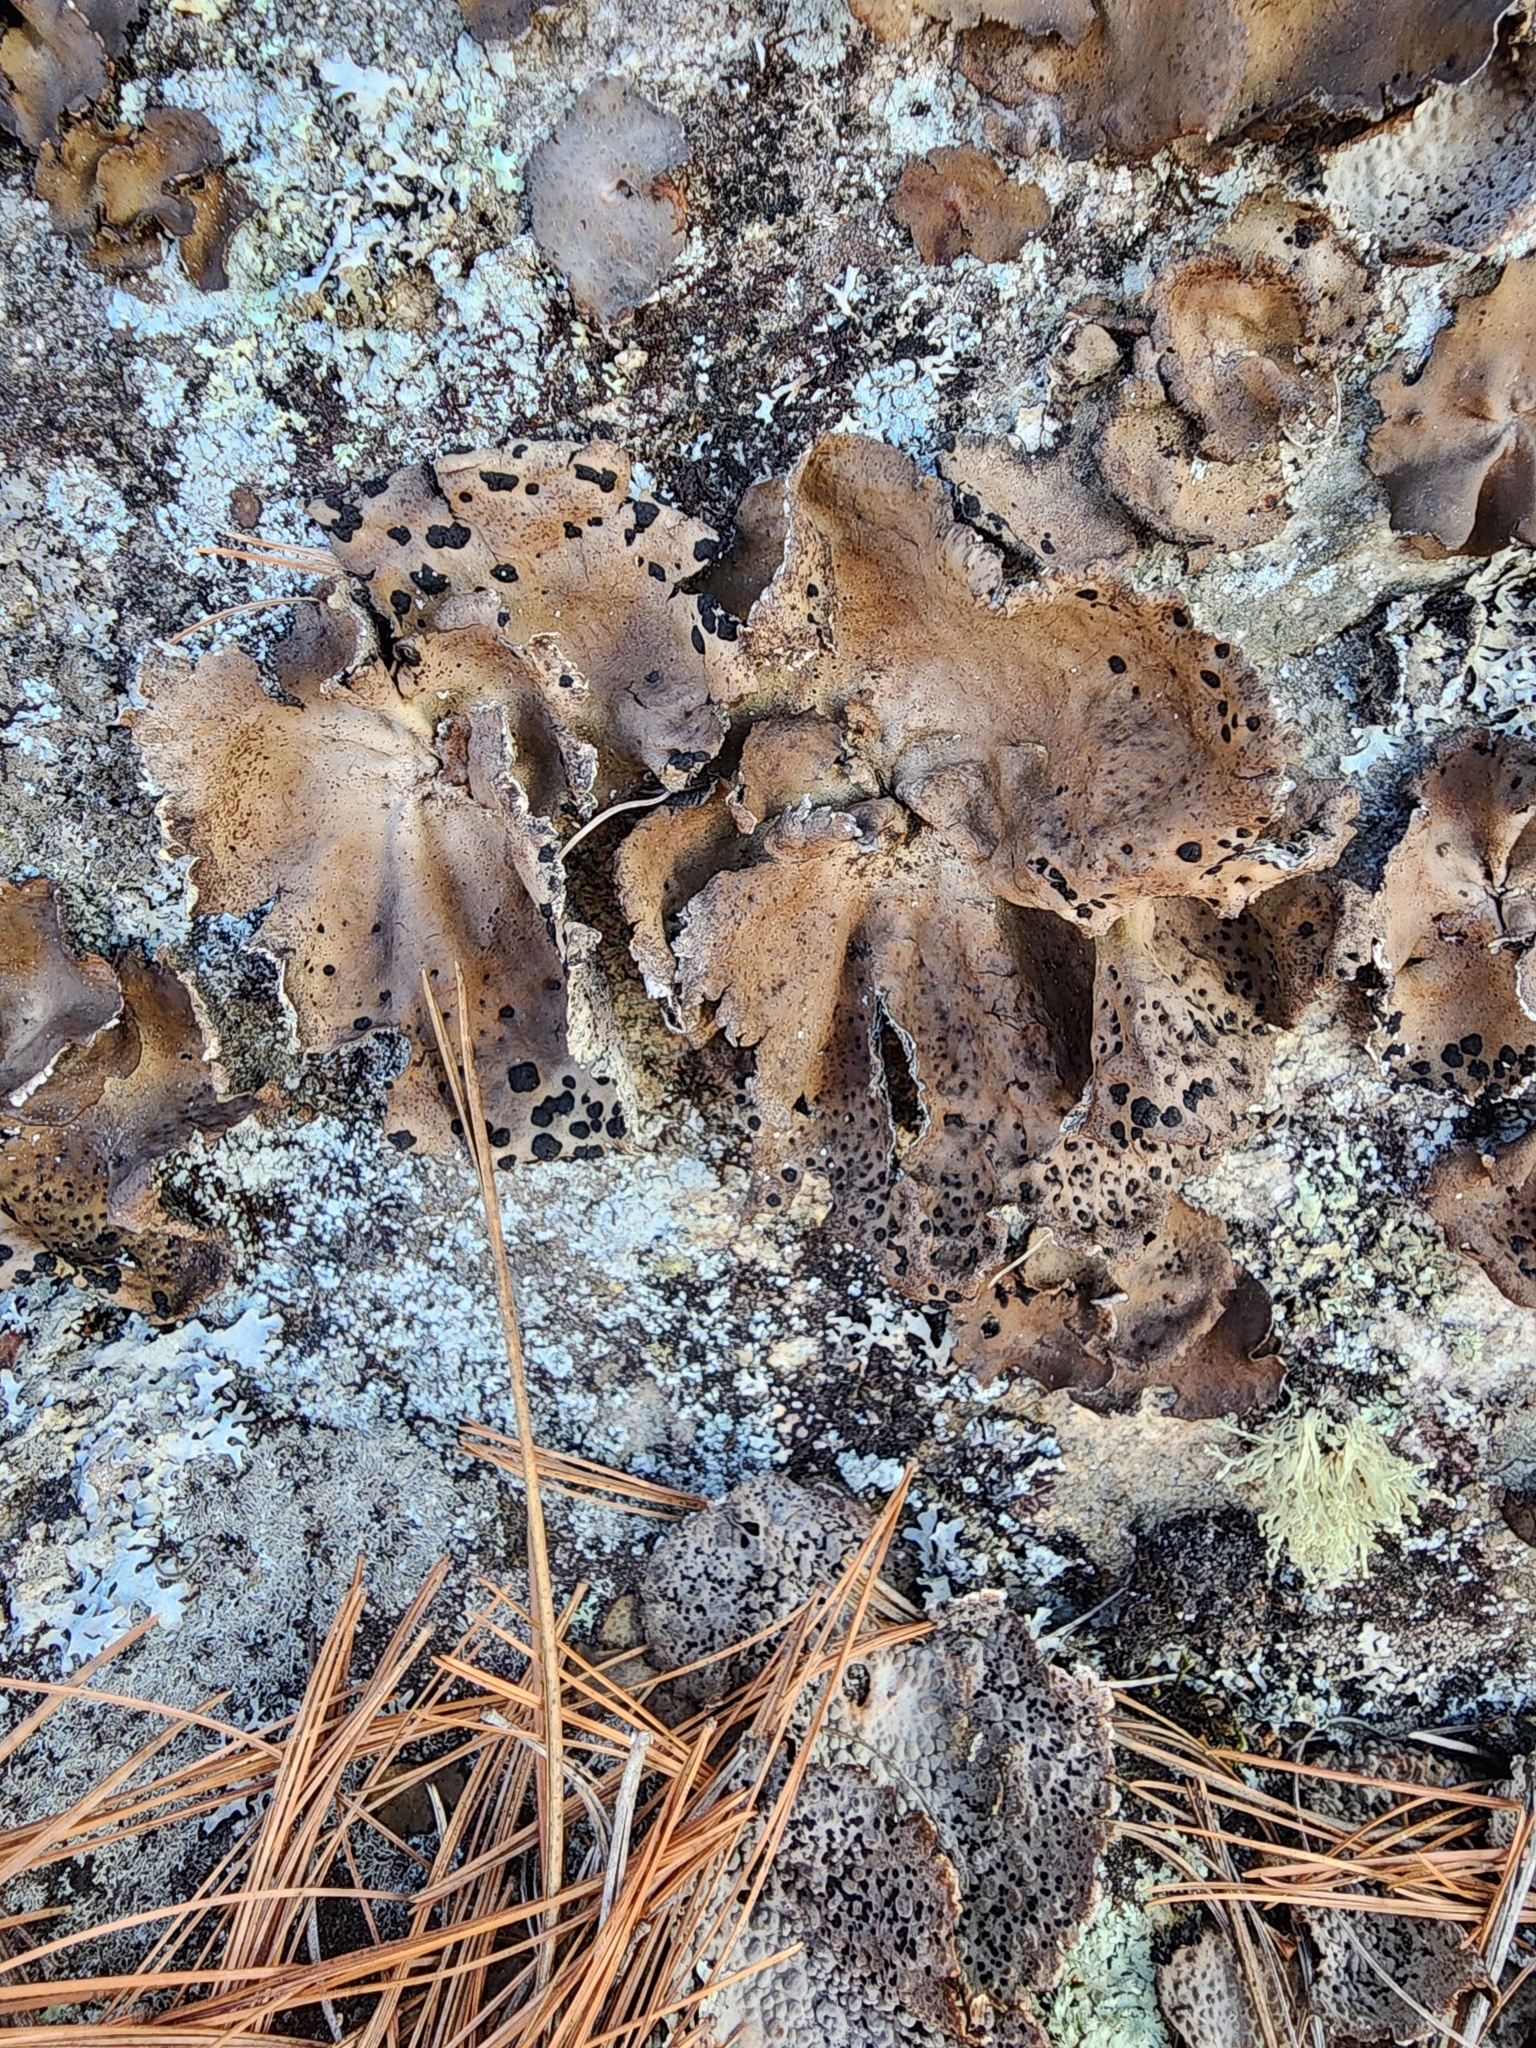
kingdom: Fungi
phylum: Ascomycota
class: Lecanoromycetes
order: Umbilicariales
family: Umbilicariaceae
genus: Umbilicaria
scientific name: Umbilicaria muhlenbergii
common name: Lesser rocktripe
